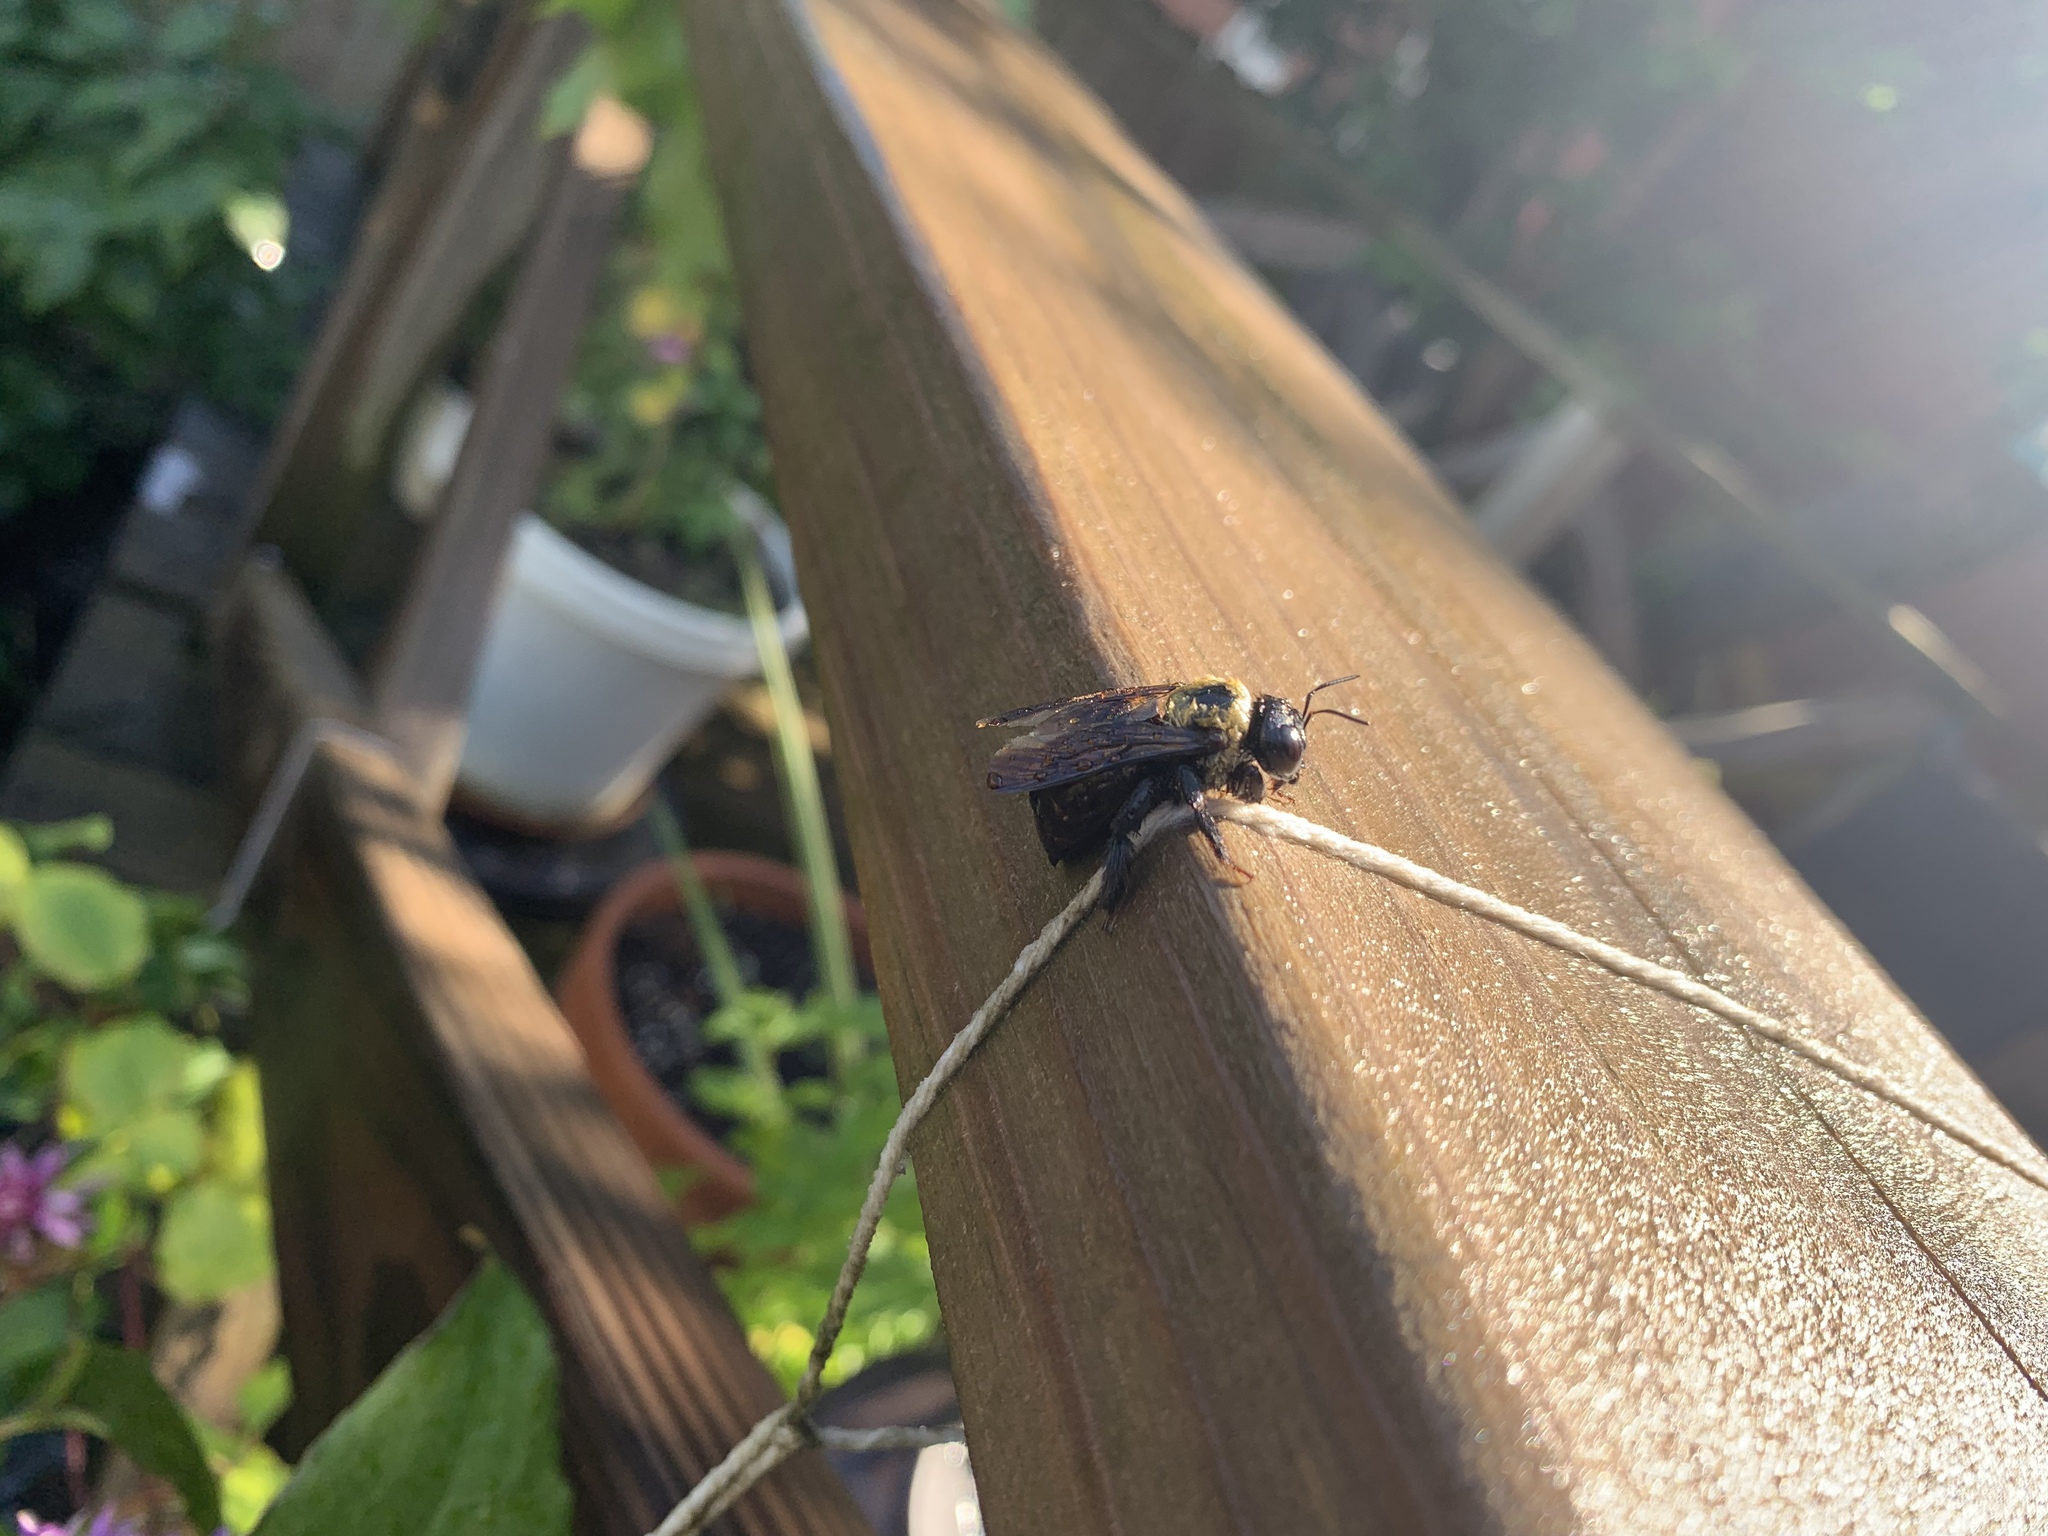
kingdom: Animalia
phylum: Arthropoda
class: Insecta
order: Hymenoptera
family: Apidae
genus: Xylocopa
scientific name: Xylocopa virginica
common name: Carpenter bee
